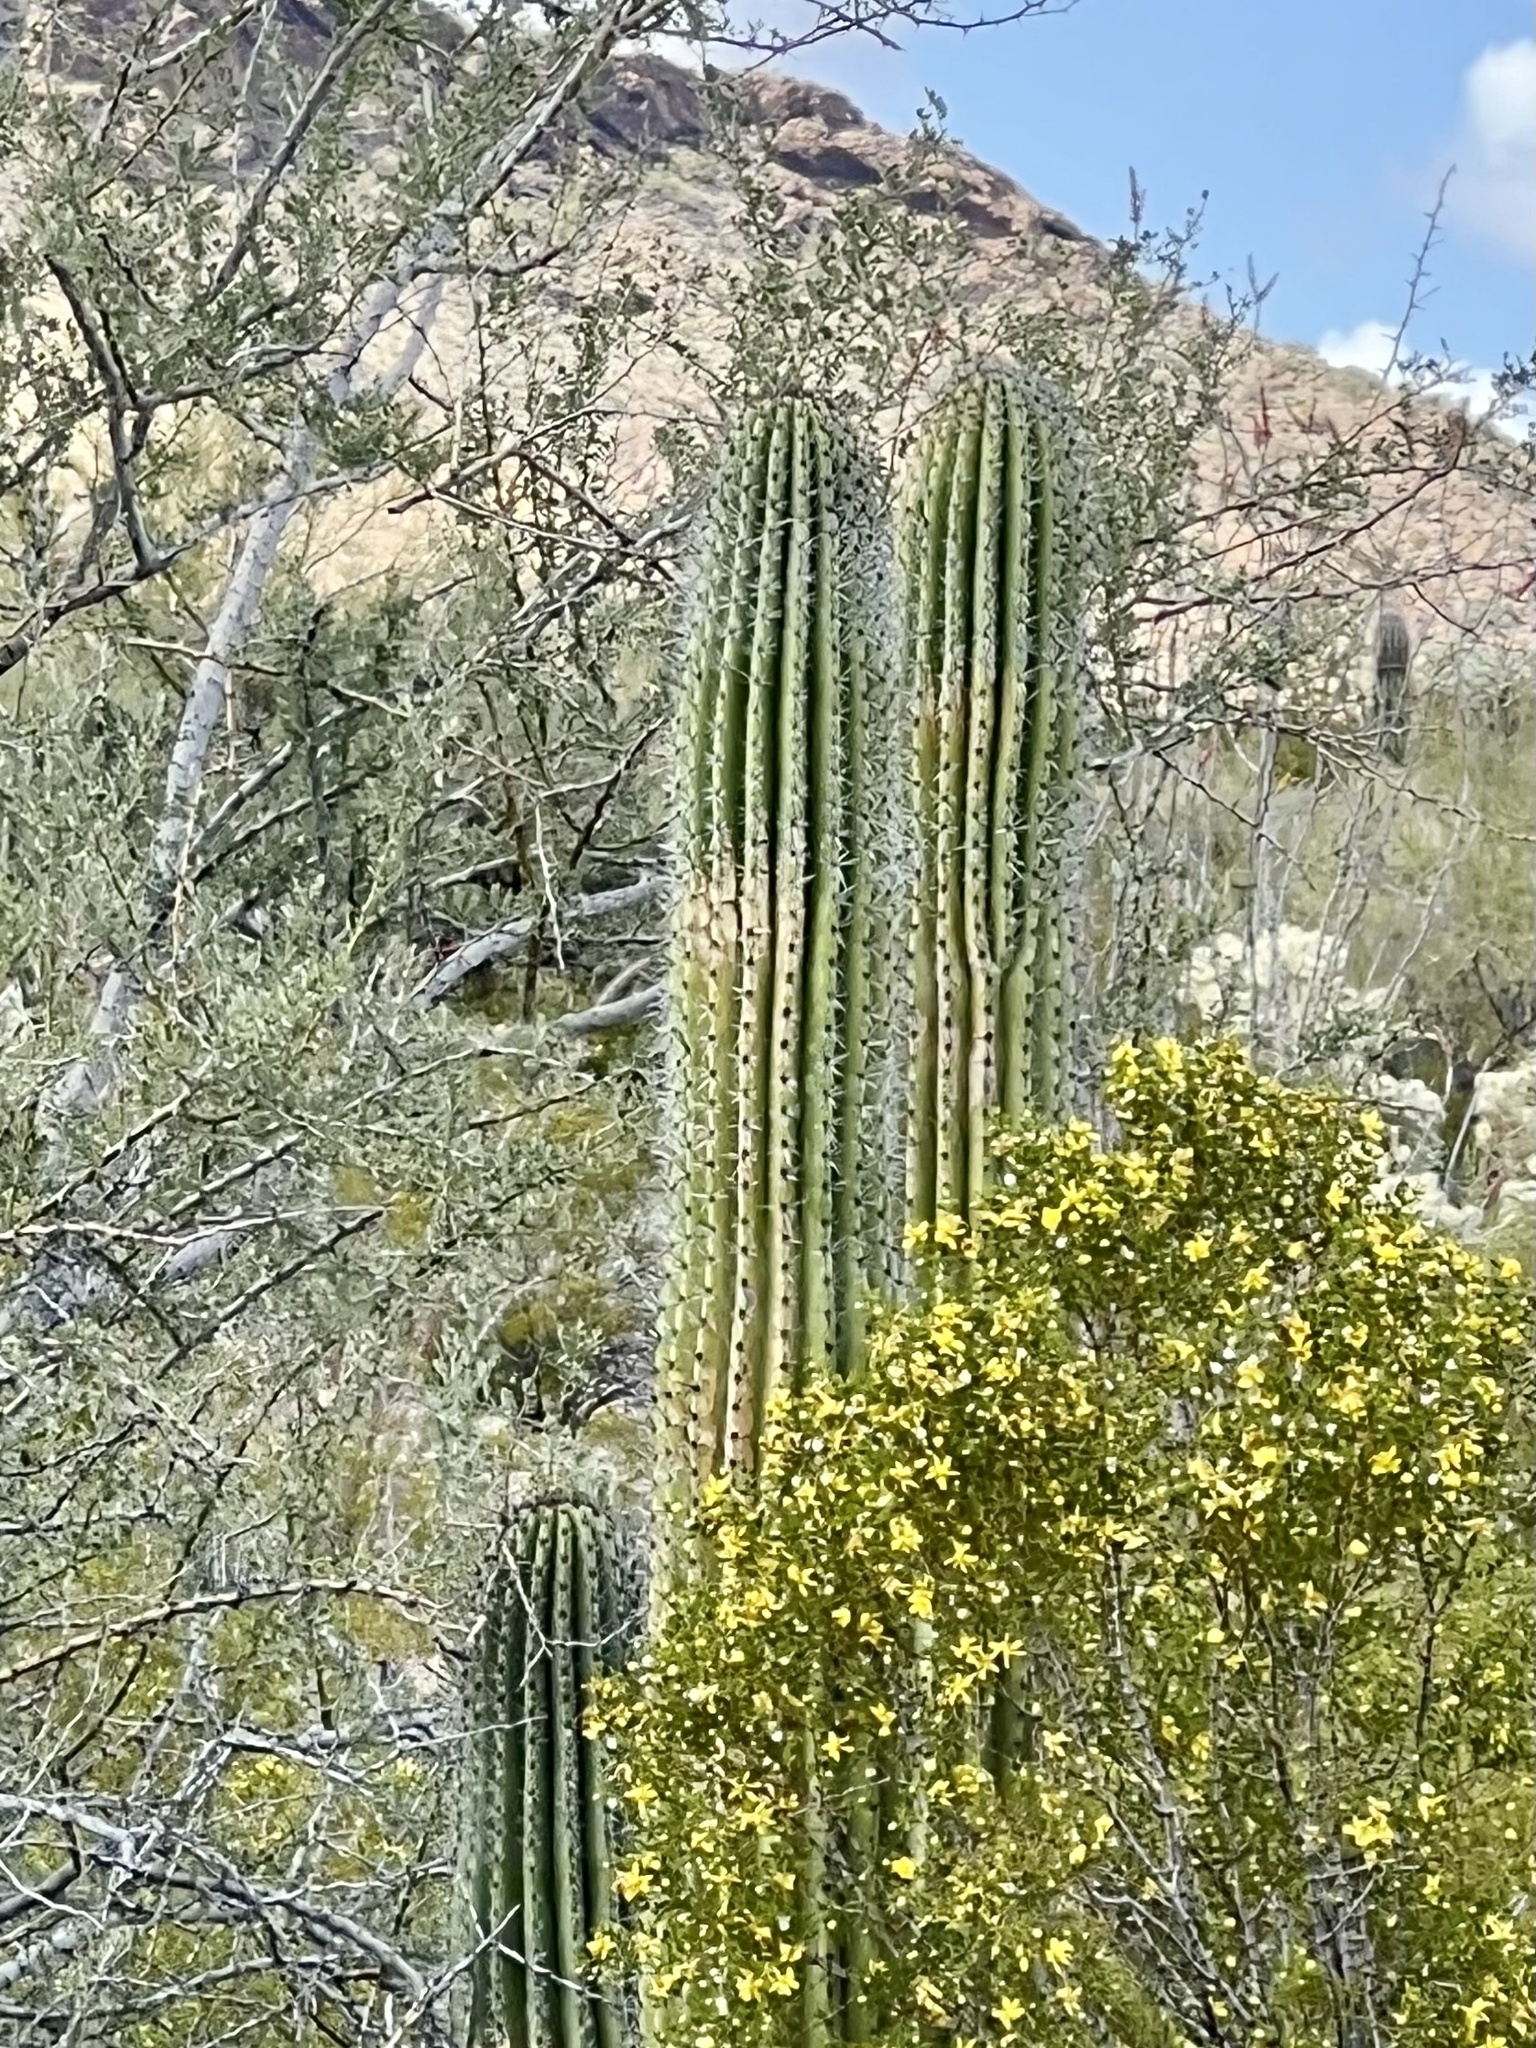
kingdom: Plantae
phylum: Tracheophyta
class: Magnoliopsida
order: Caryophyllales
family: Cactaceae
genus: Stenocereus
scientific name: Stenocereus thurberi
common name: Organ pipe cactus
